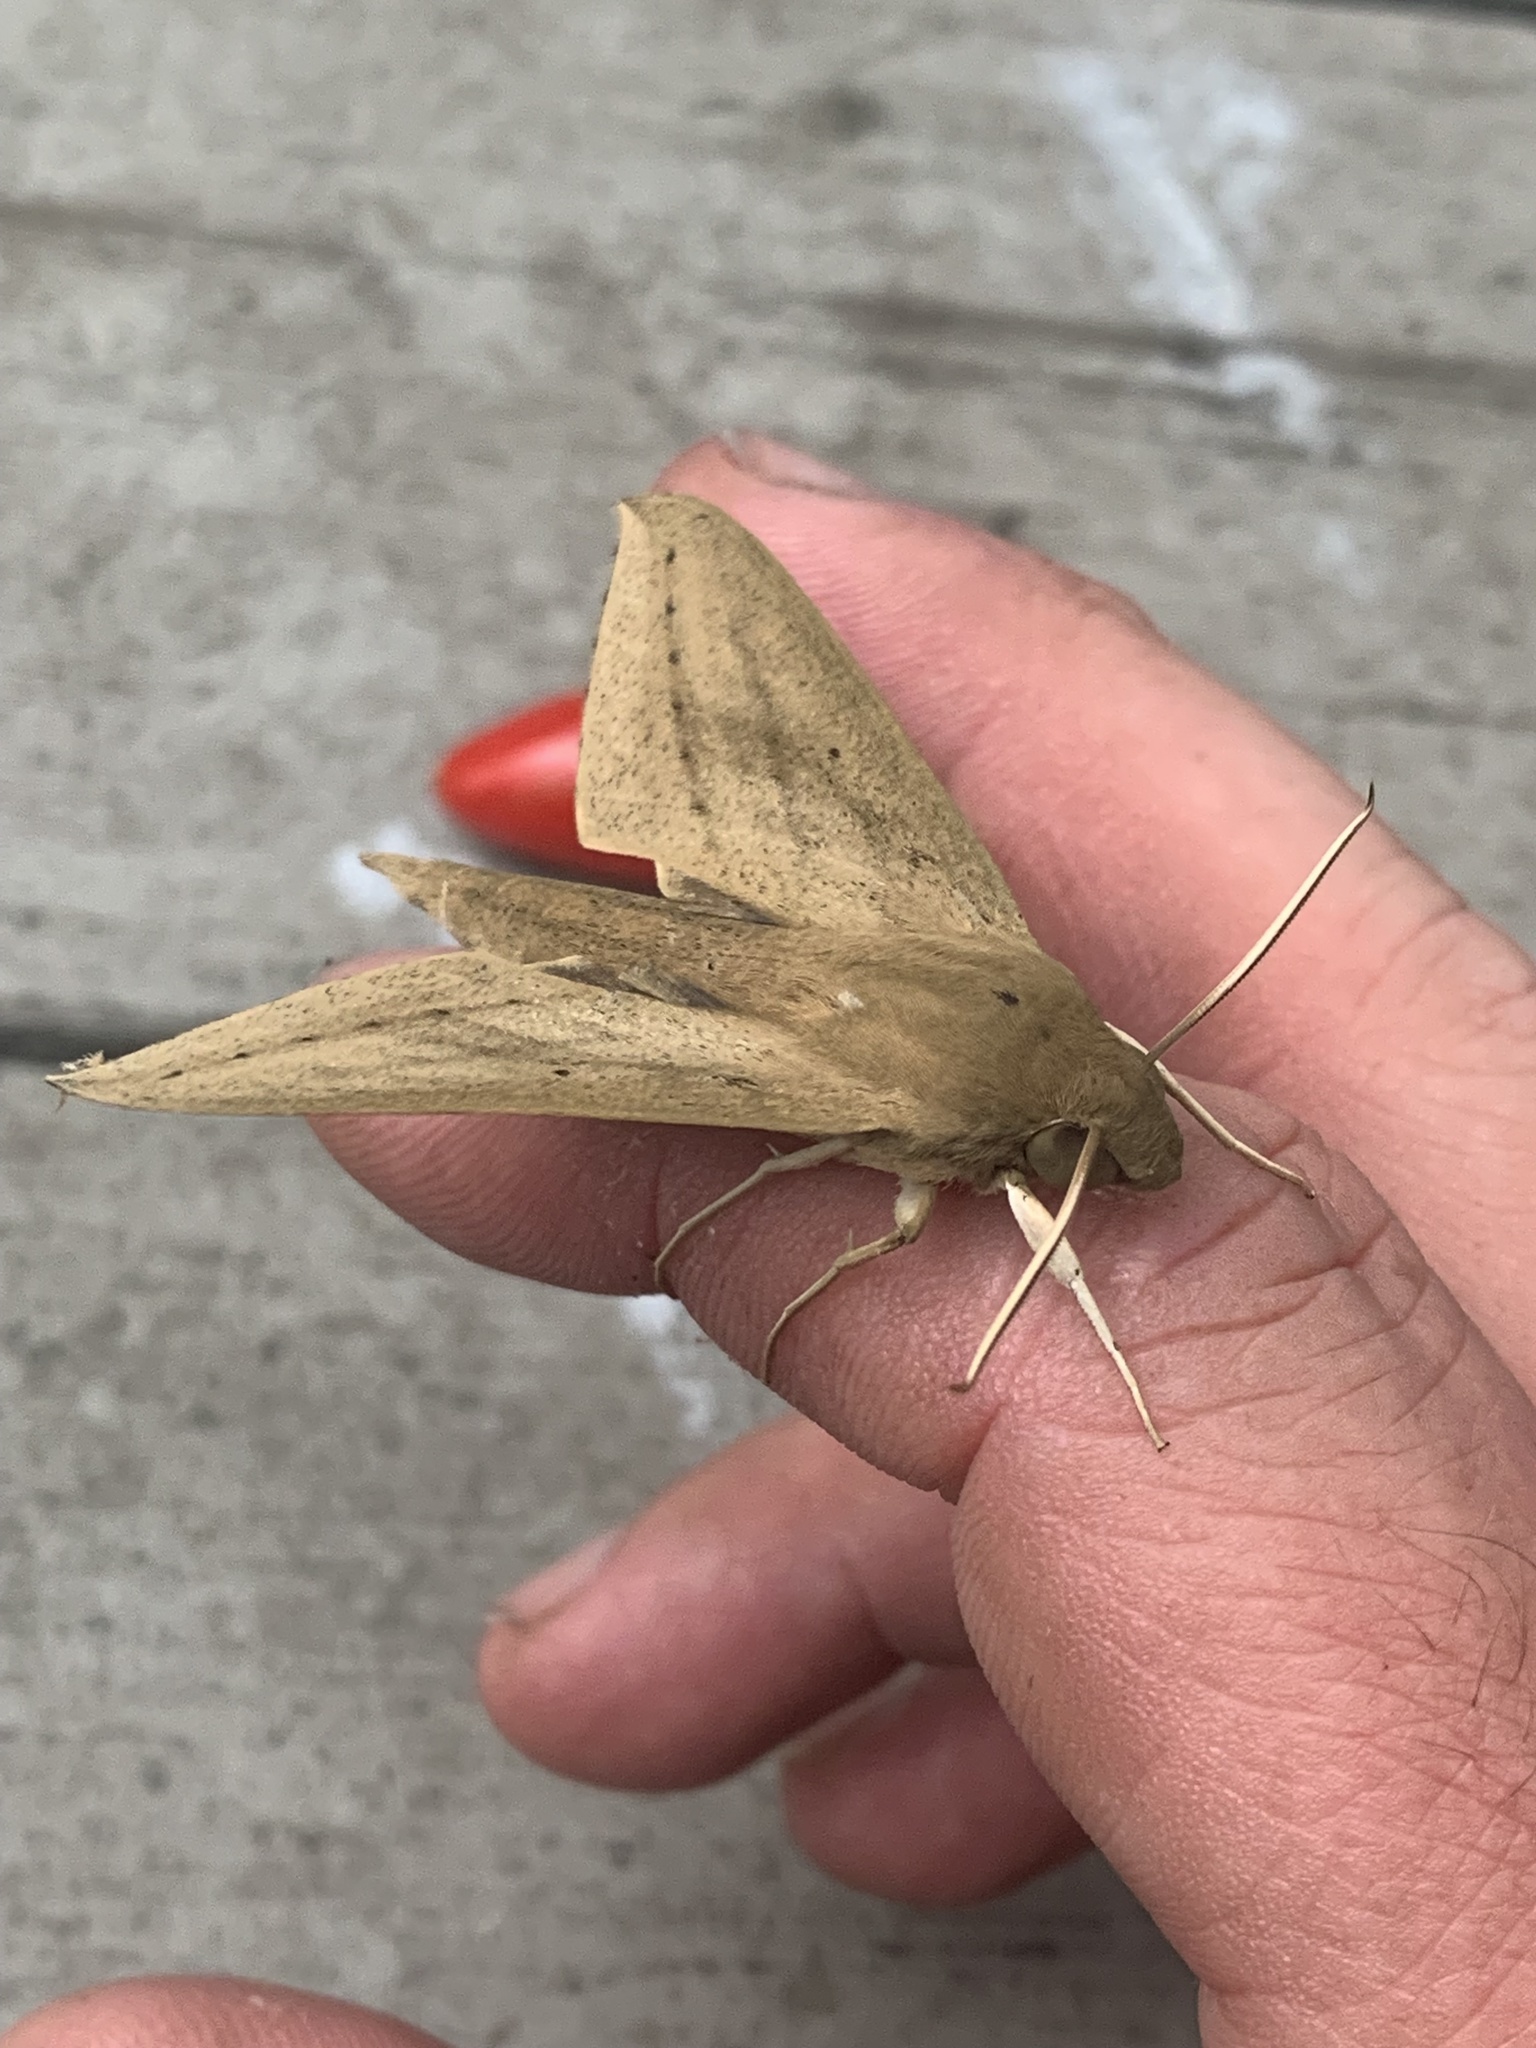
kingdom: Animalia
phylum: Arthropoda
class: Insecta
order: Lepidoptera
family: Sphingidae
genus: Theretra
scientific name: Theretra latreillii
